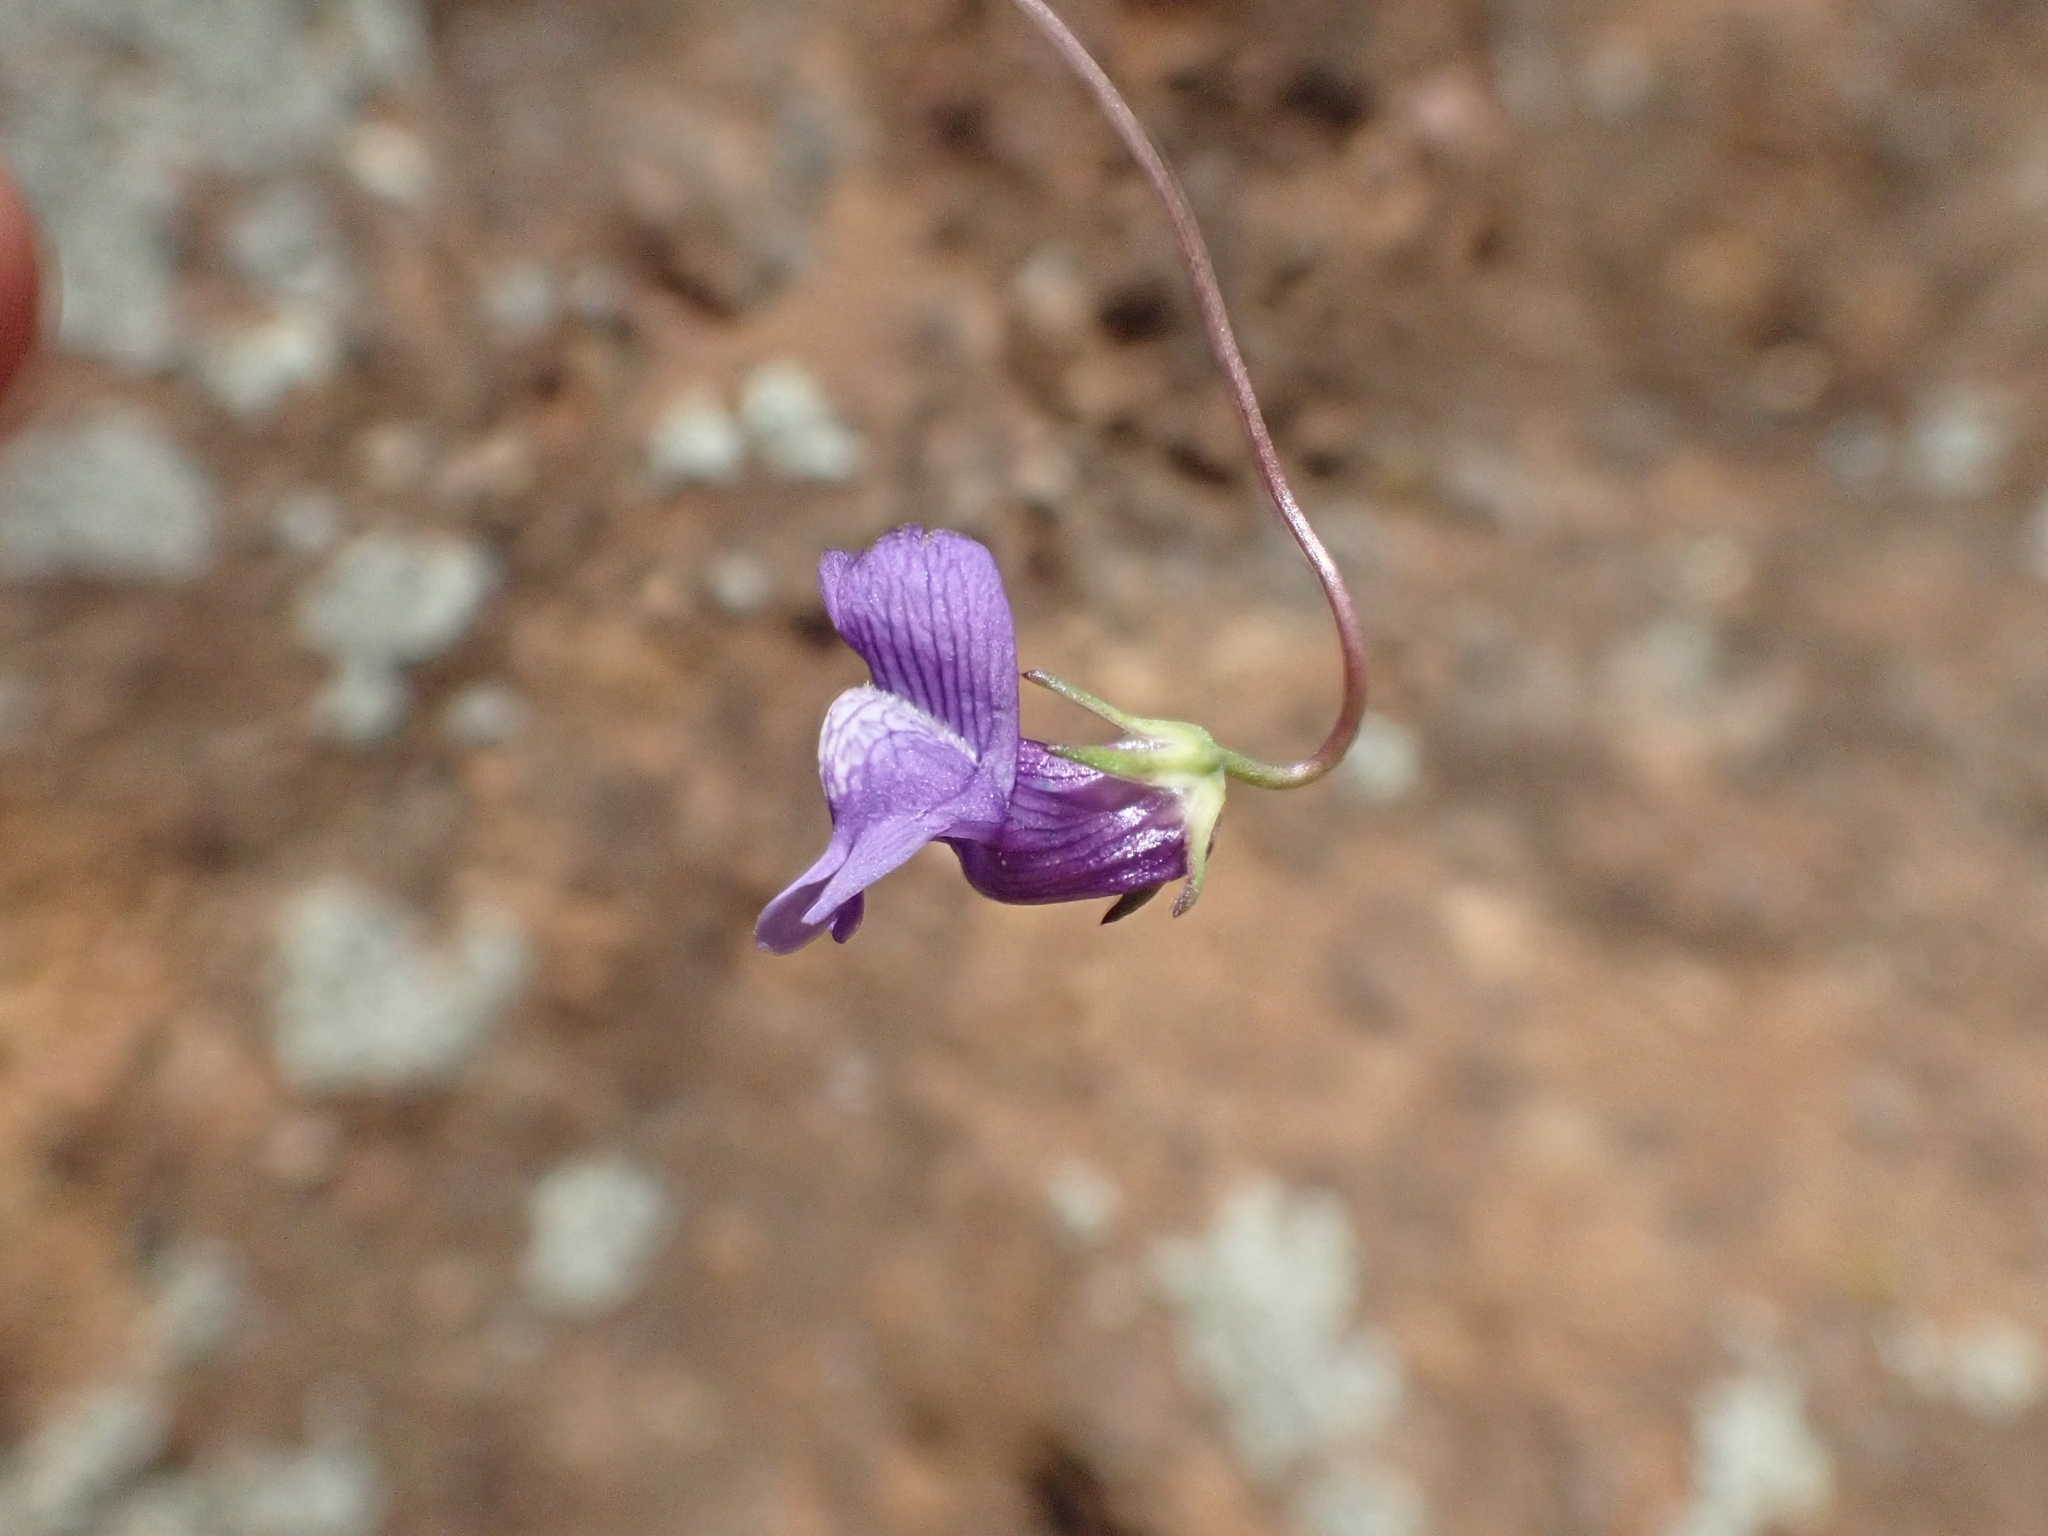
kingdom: Plantae
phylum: Tracheophyta
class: Magnoliopsida
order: Lamiales
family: Plantaginaceae
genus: Neogaerrhinum
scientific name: Neogaerrhinum strictum
